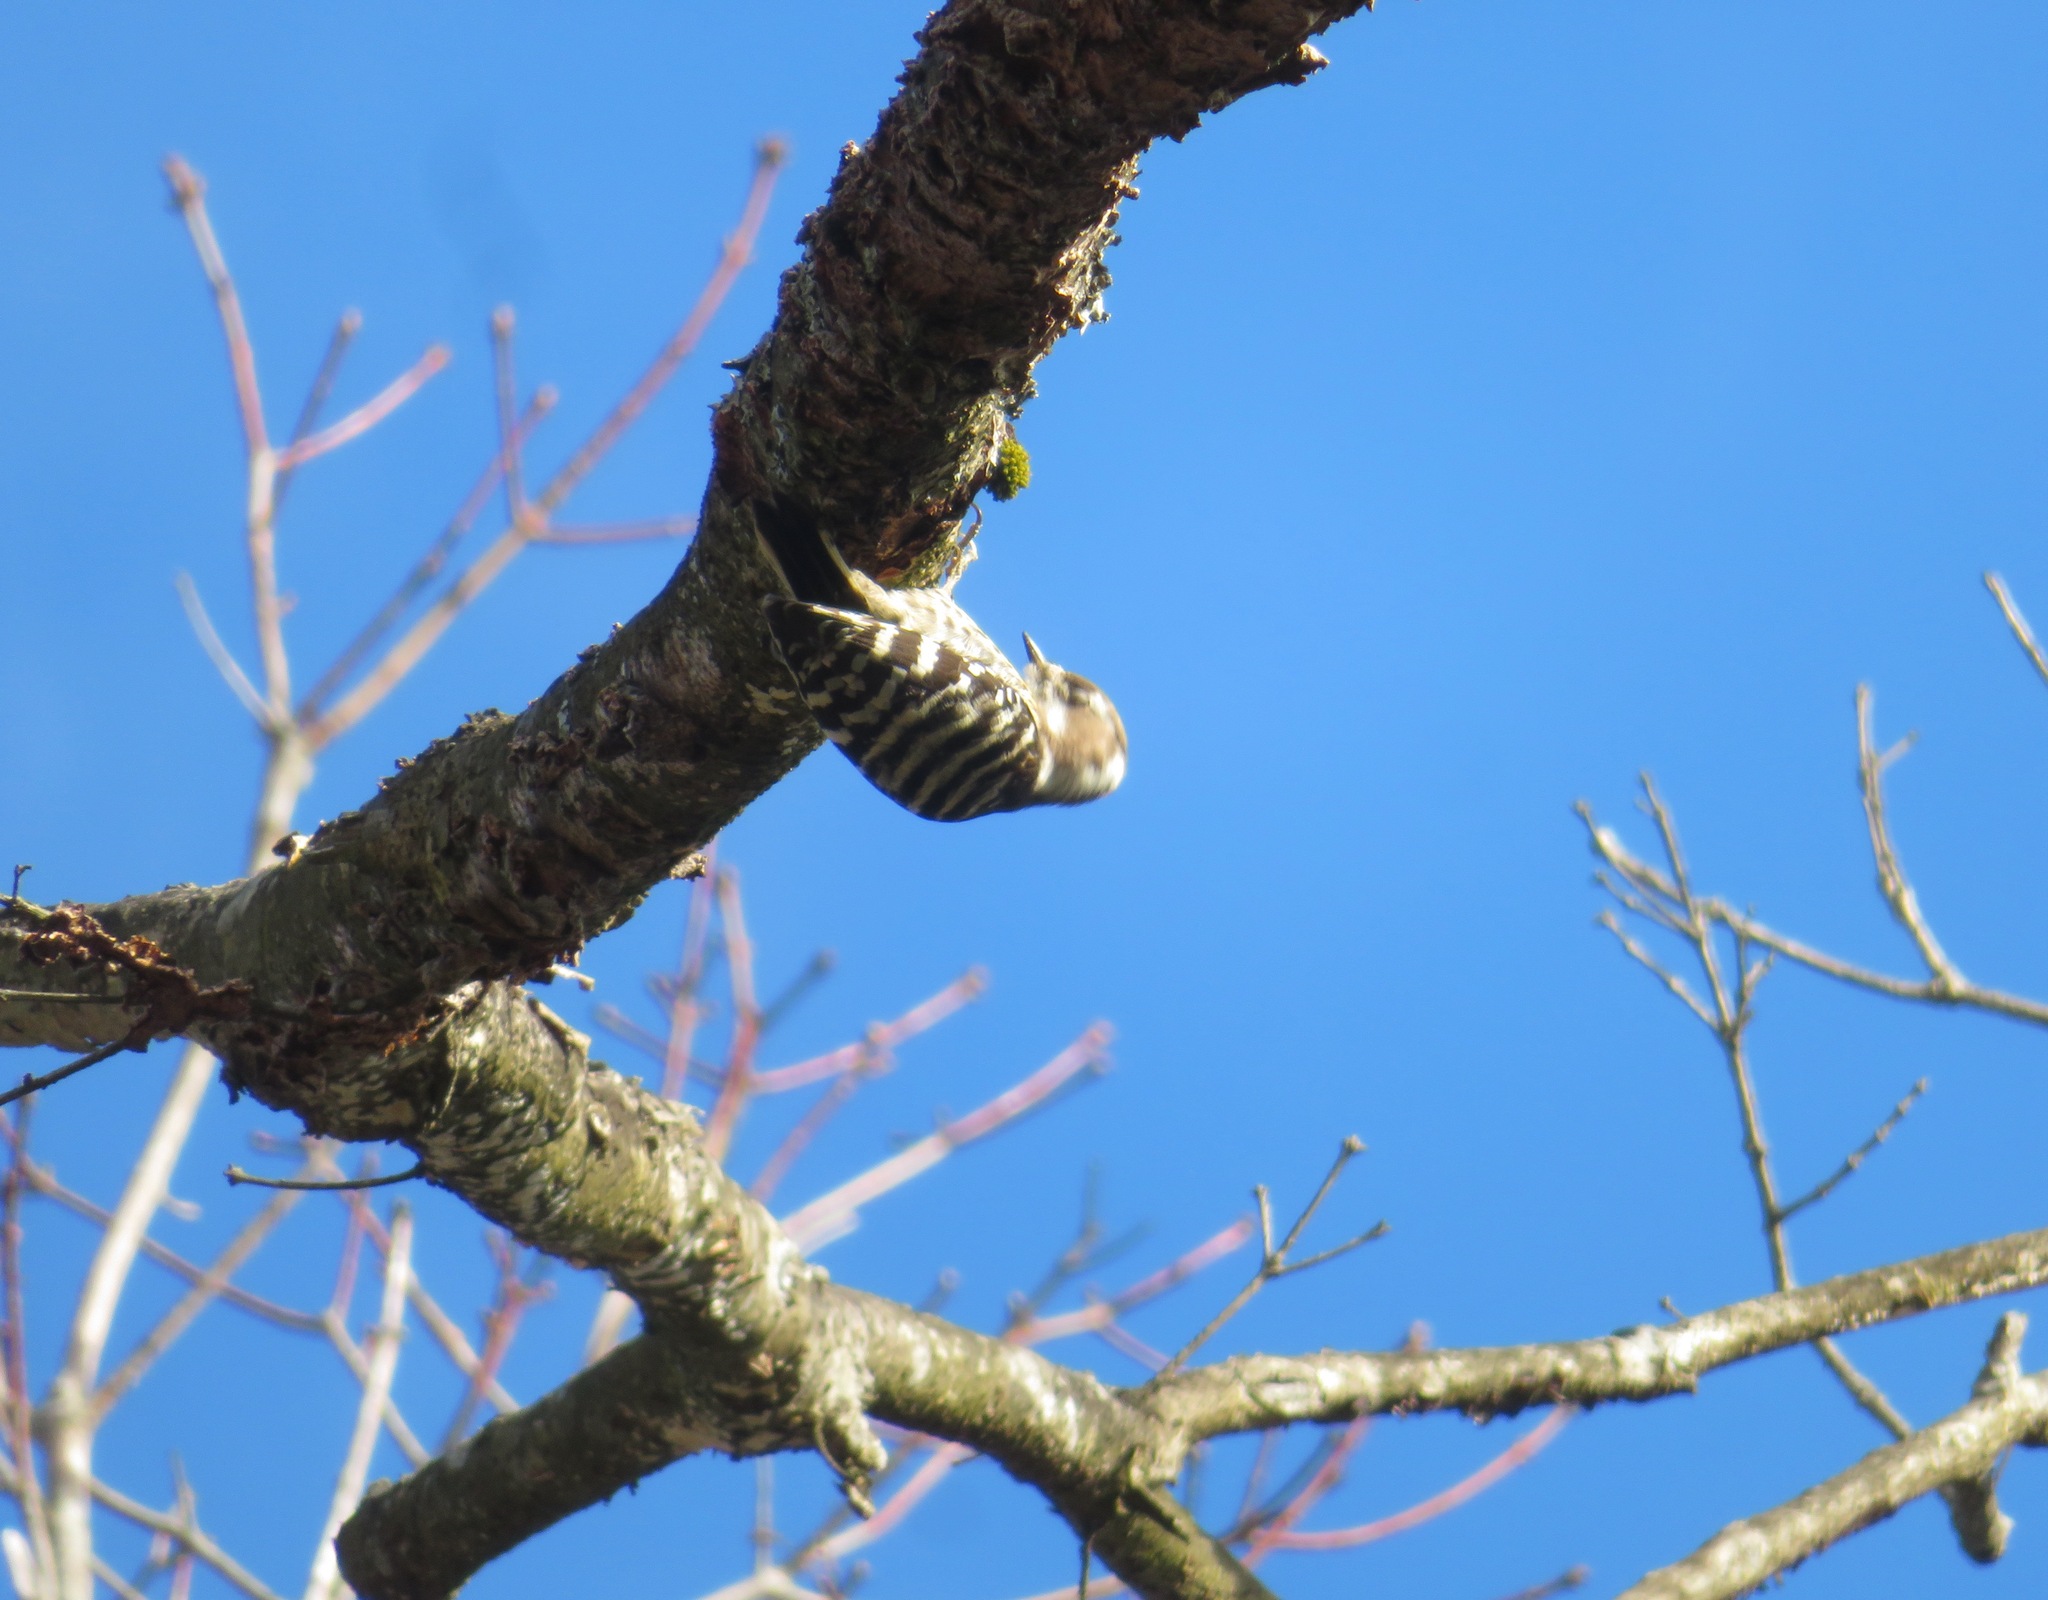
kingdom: Animalia
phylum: Chordata
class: Aves
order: Piciformes
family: Picidae
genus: Yungipicus
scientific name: Yungipicus kizuki
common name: Japanese pygmy woodpecker
